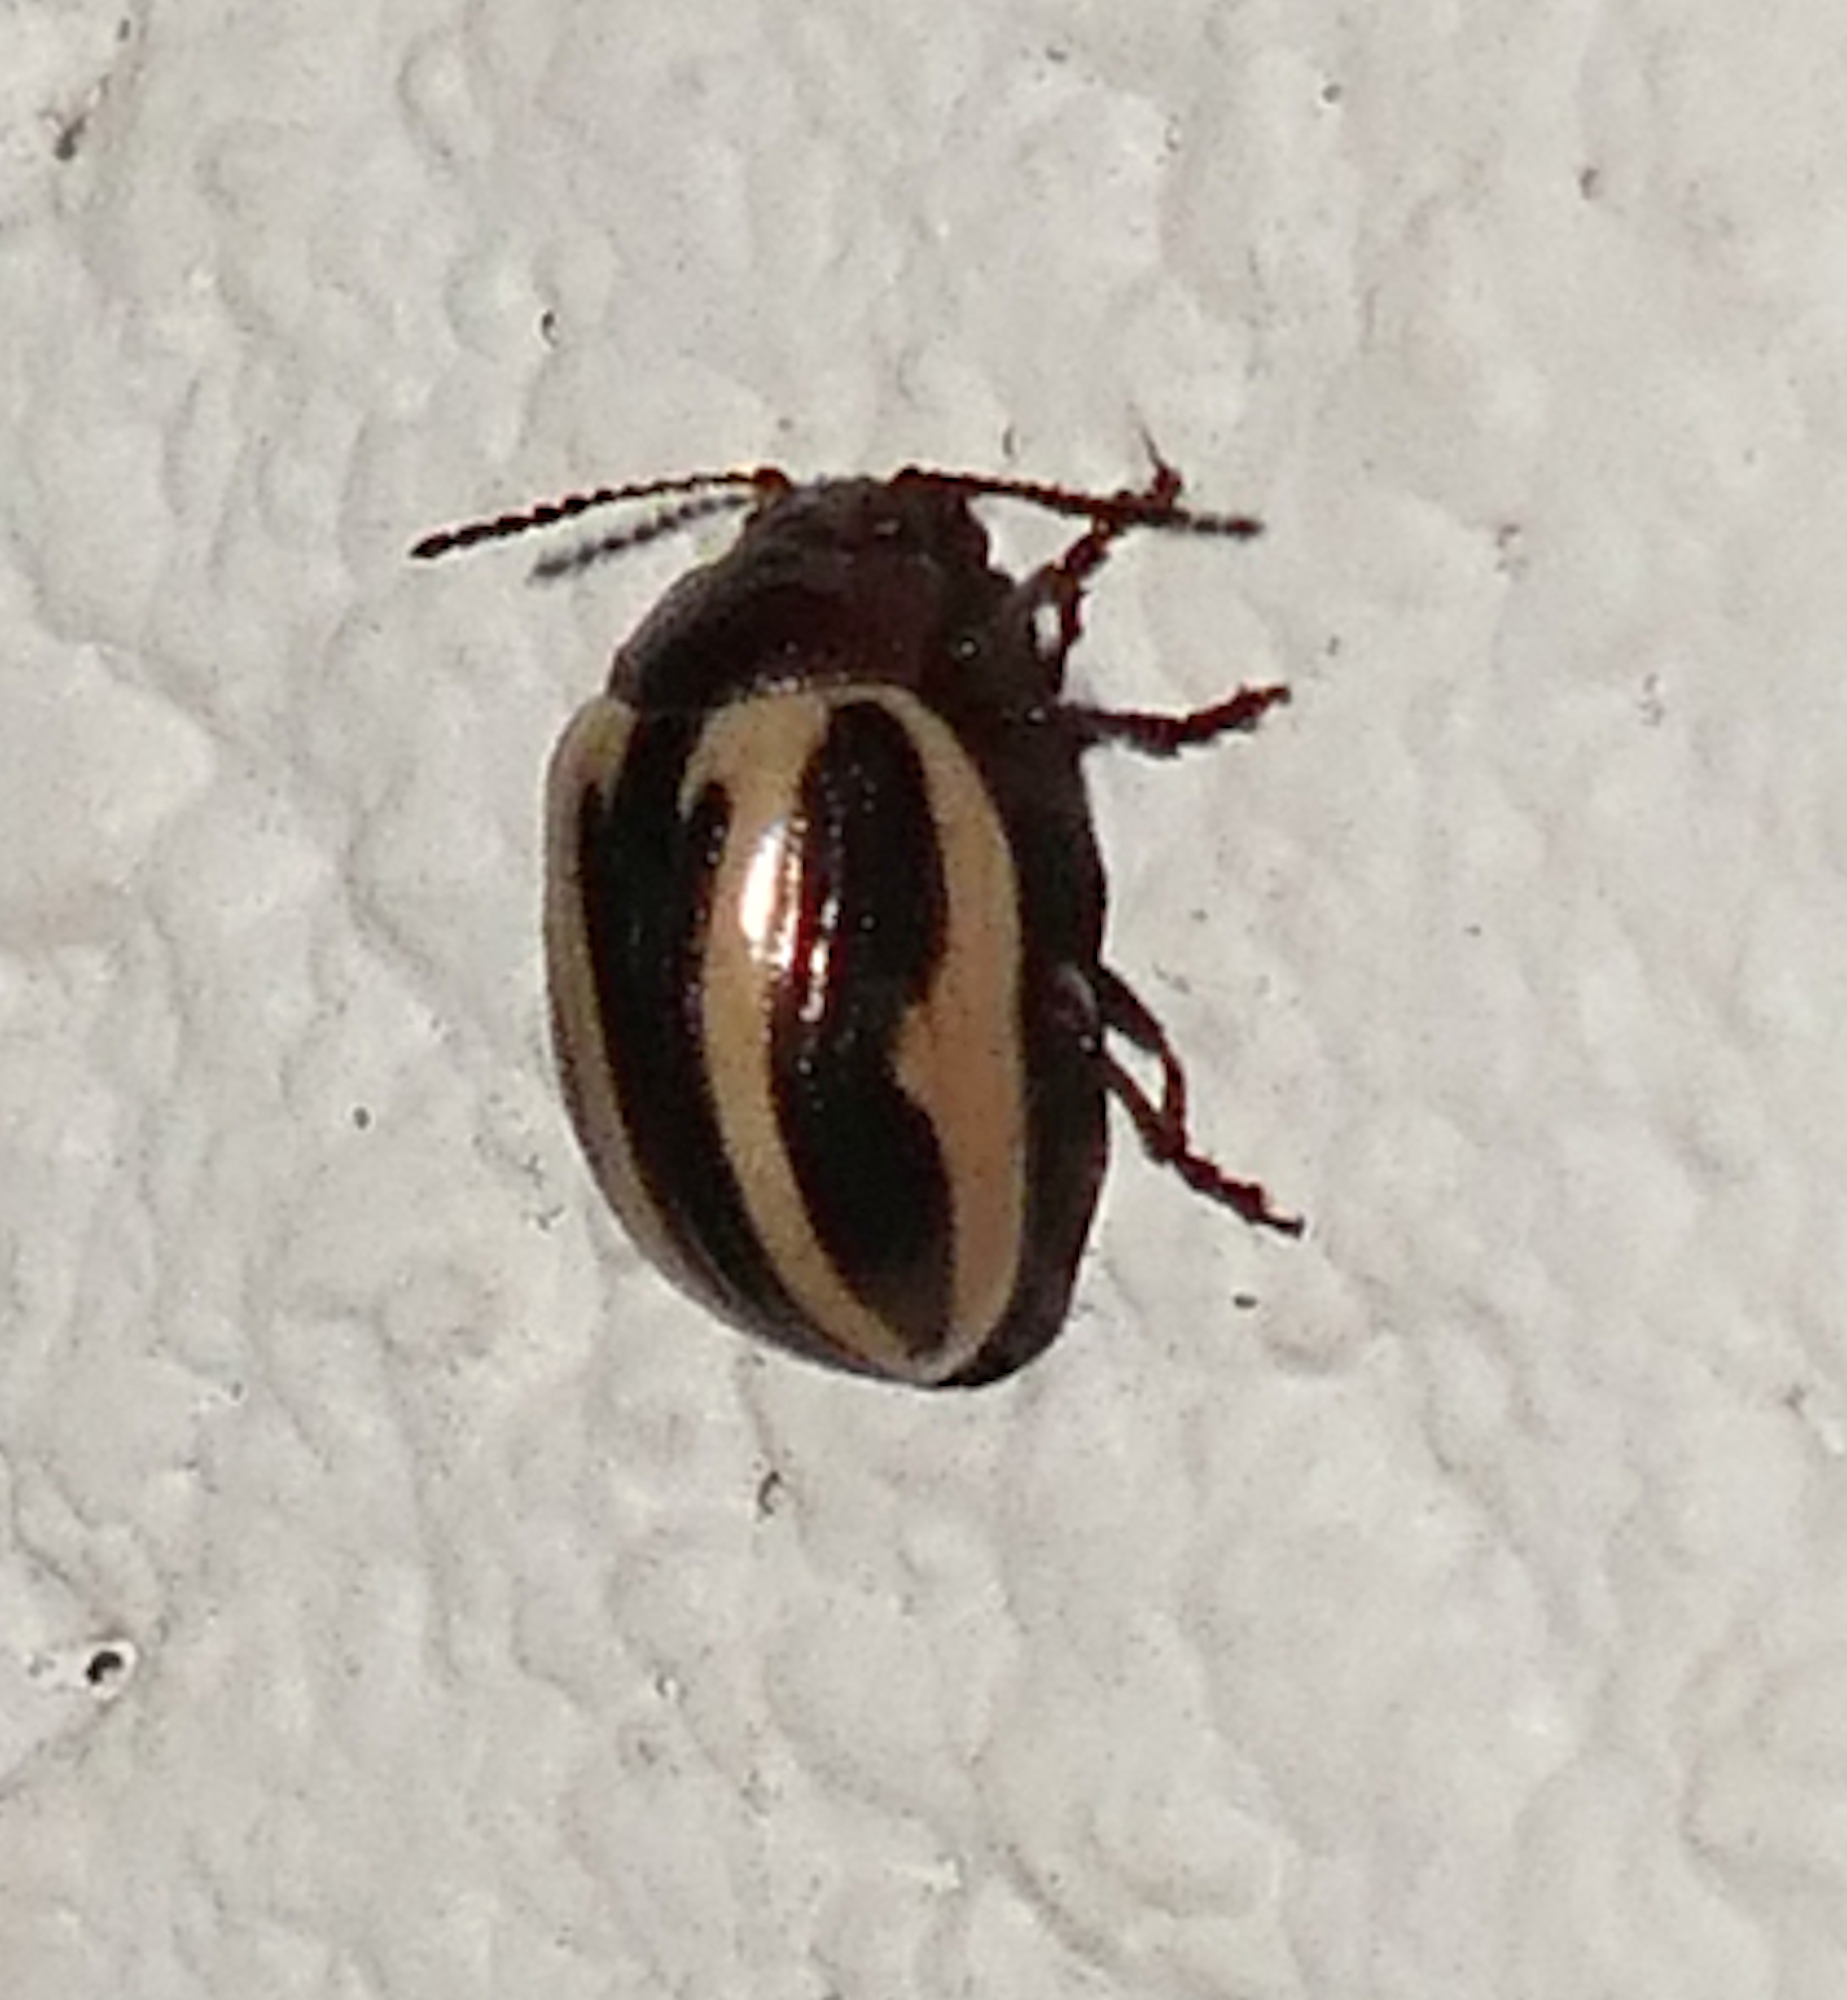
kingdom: Animalia
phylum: Arthropoda
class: Insecta
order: Coleoptera
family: Chrysomelidae
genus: Calligrapha
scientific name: Calligrapha bidenticola
